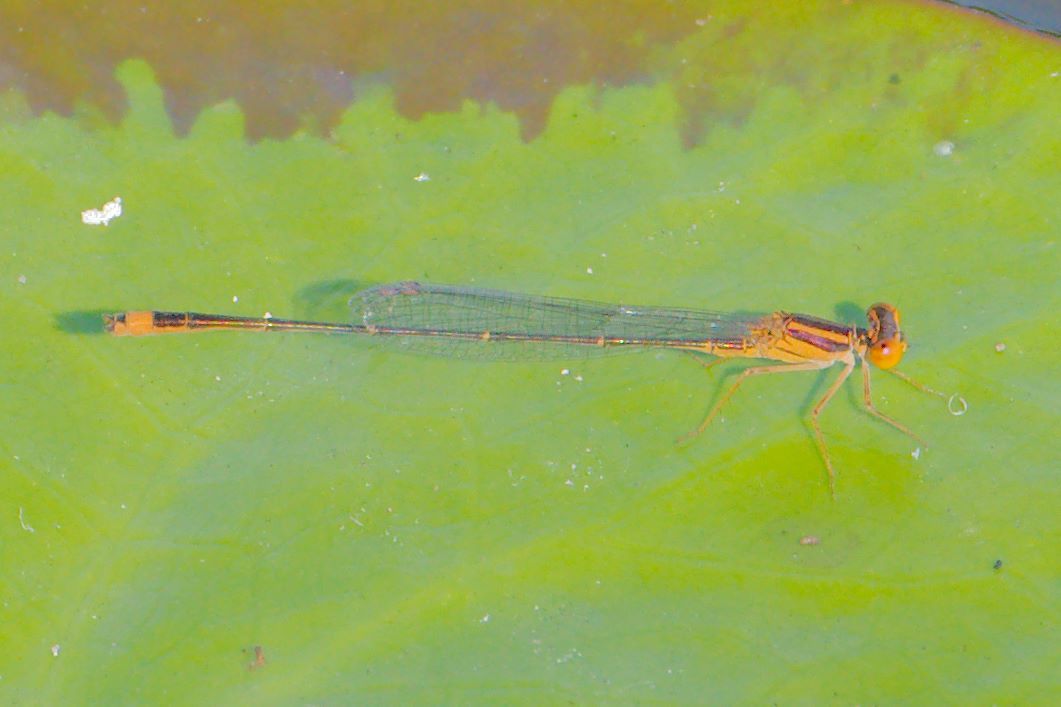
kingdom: Animalia
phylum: Arthropoda
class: Insecta
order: Odonata
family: Coenagrionidae
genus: Enallagma
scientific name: Enallagma pollutum
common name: Florida bluet
